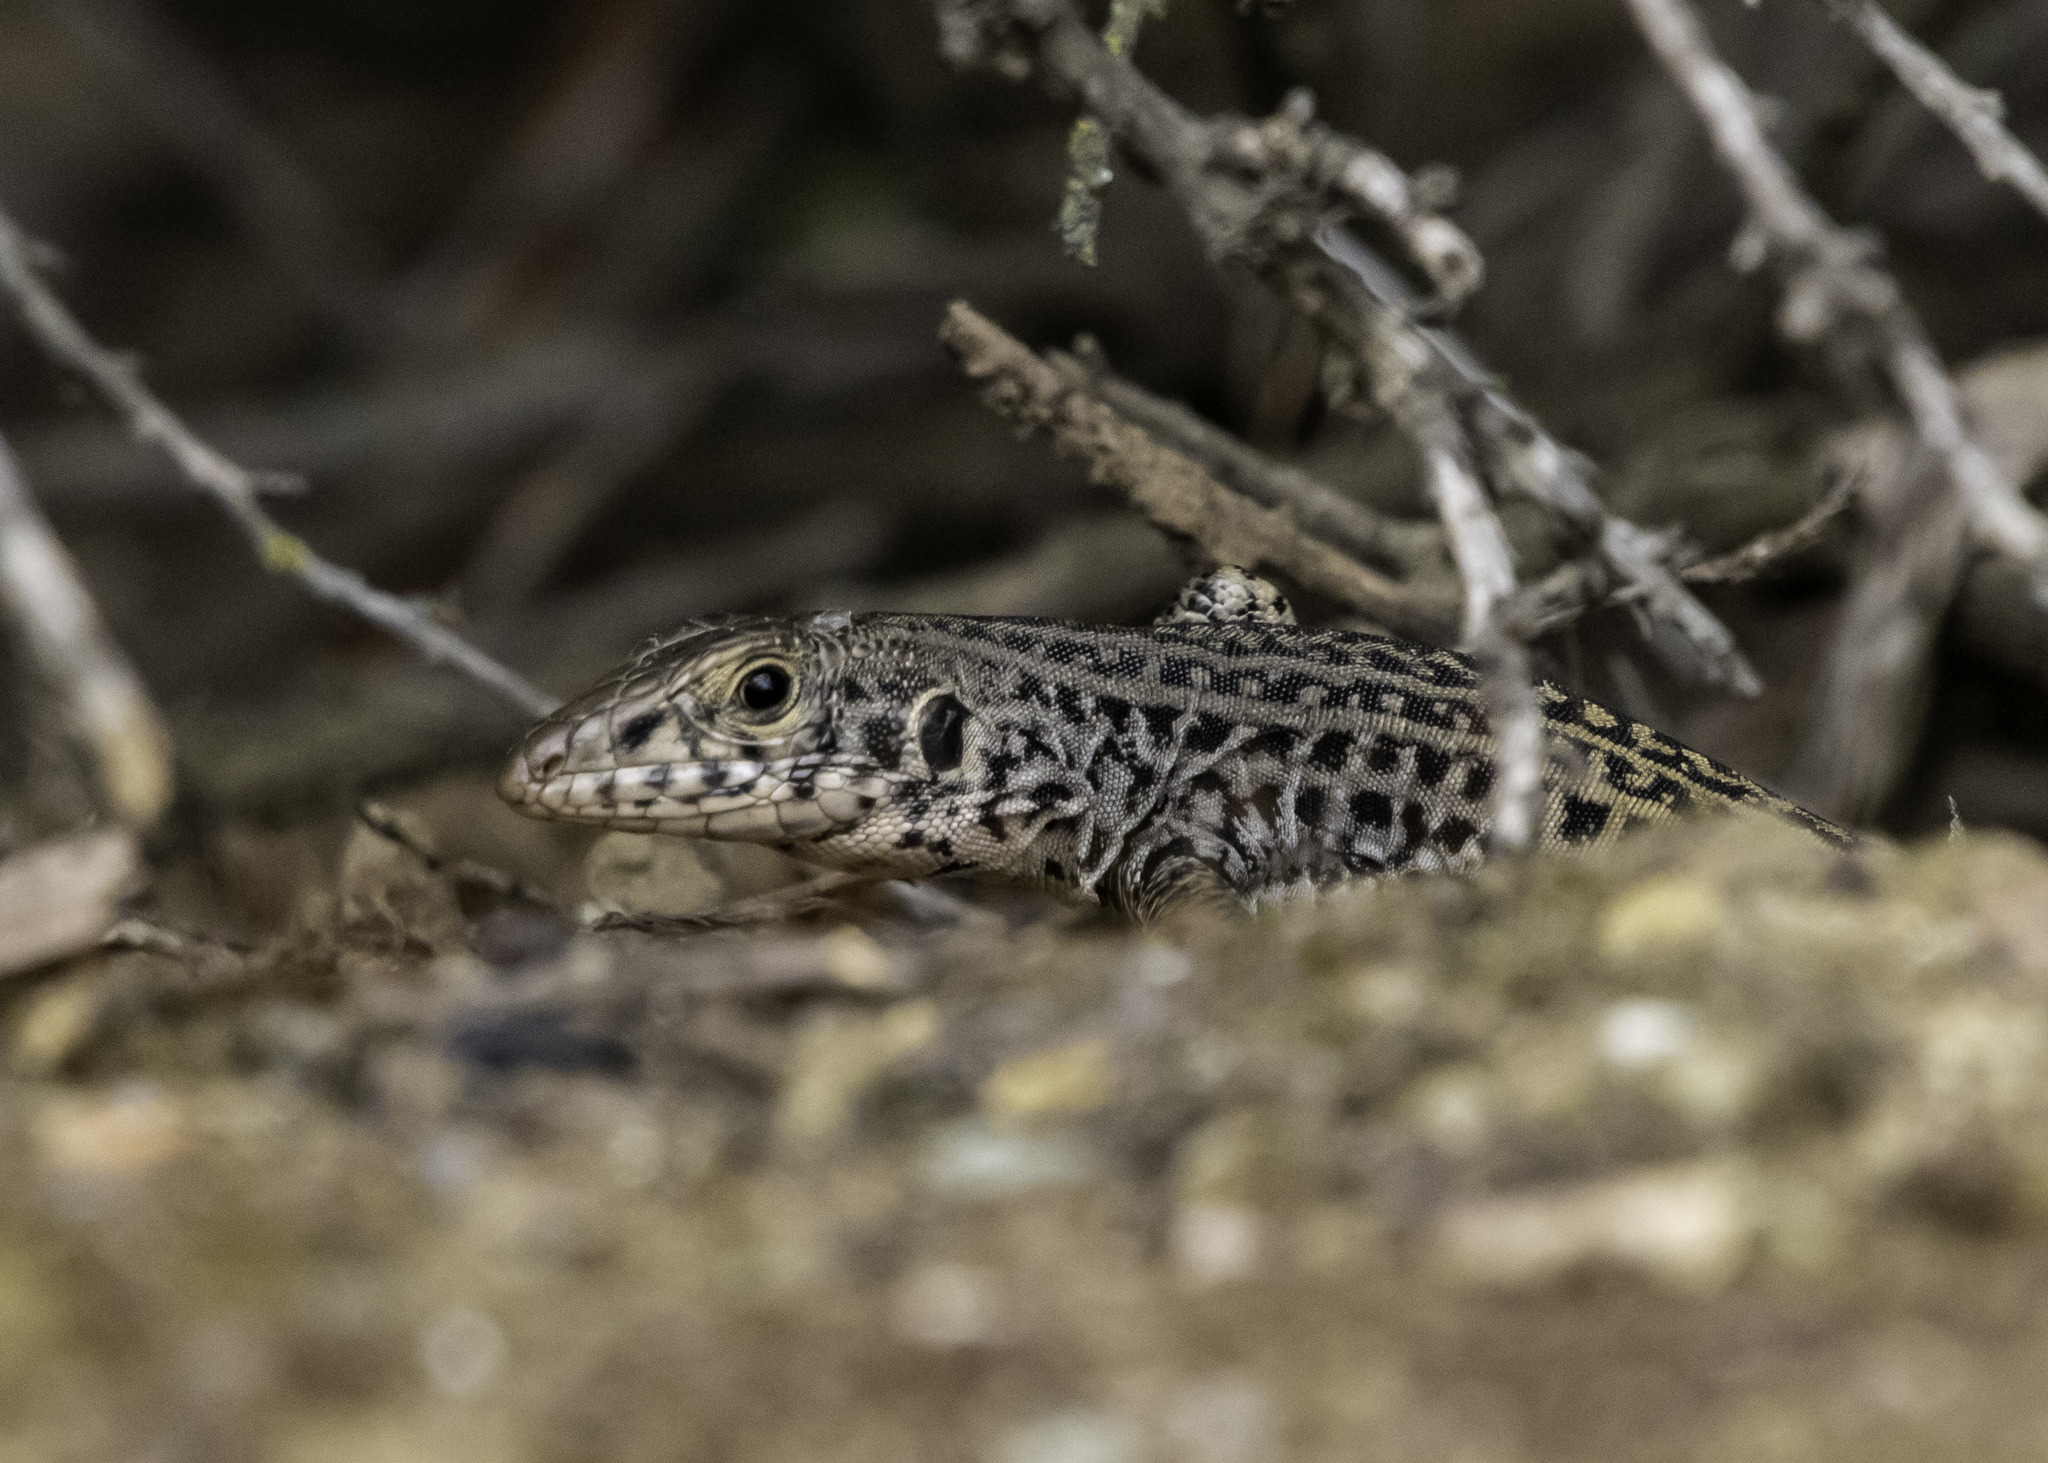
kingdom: Animalia
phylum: Chordata
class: Squamata
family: Teiidae
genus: Aspidoscelis
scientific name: Aspidoscelis tigris
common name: Tiger whiptail
